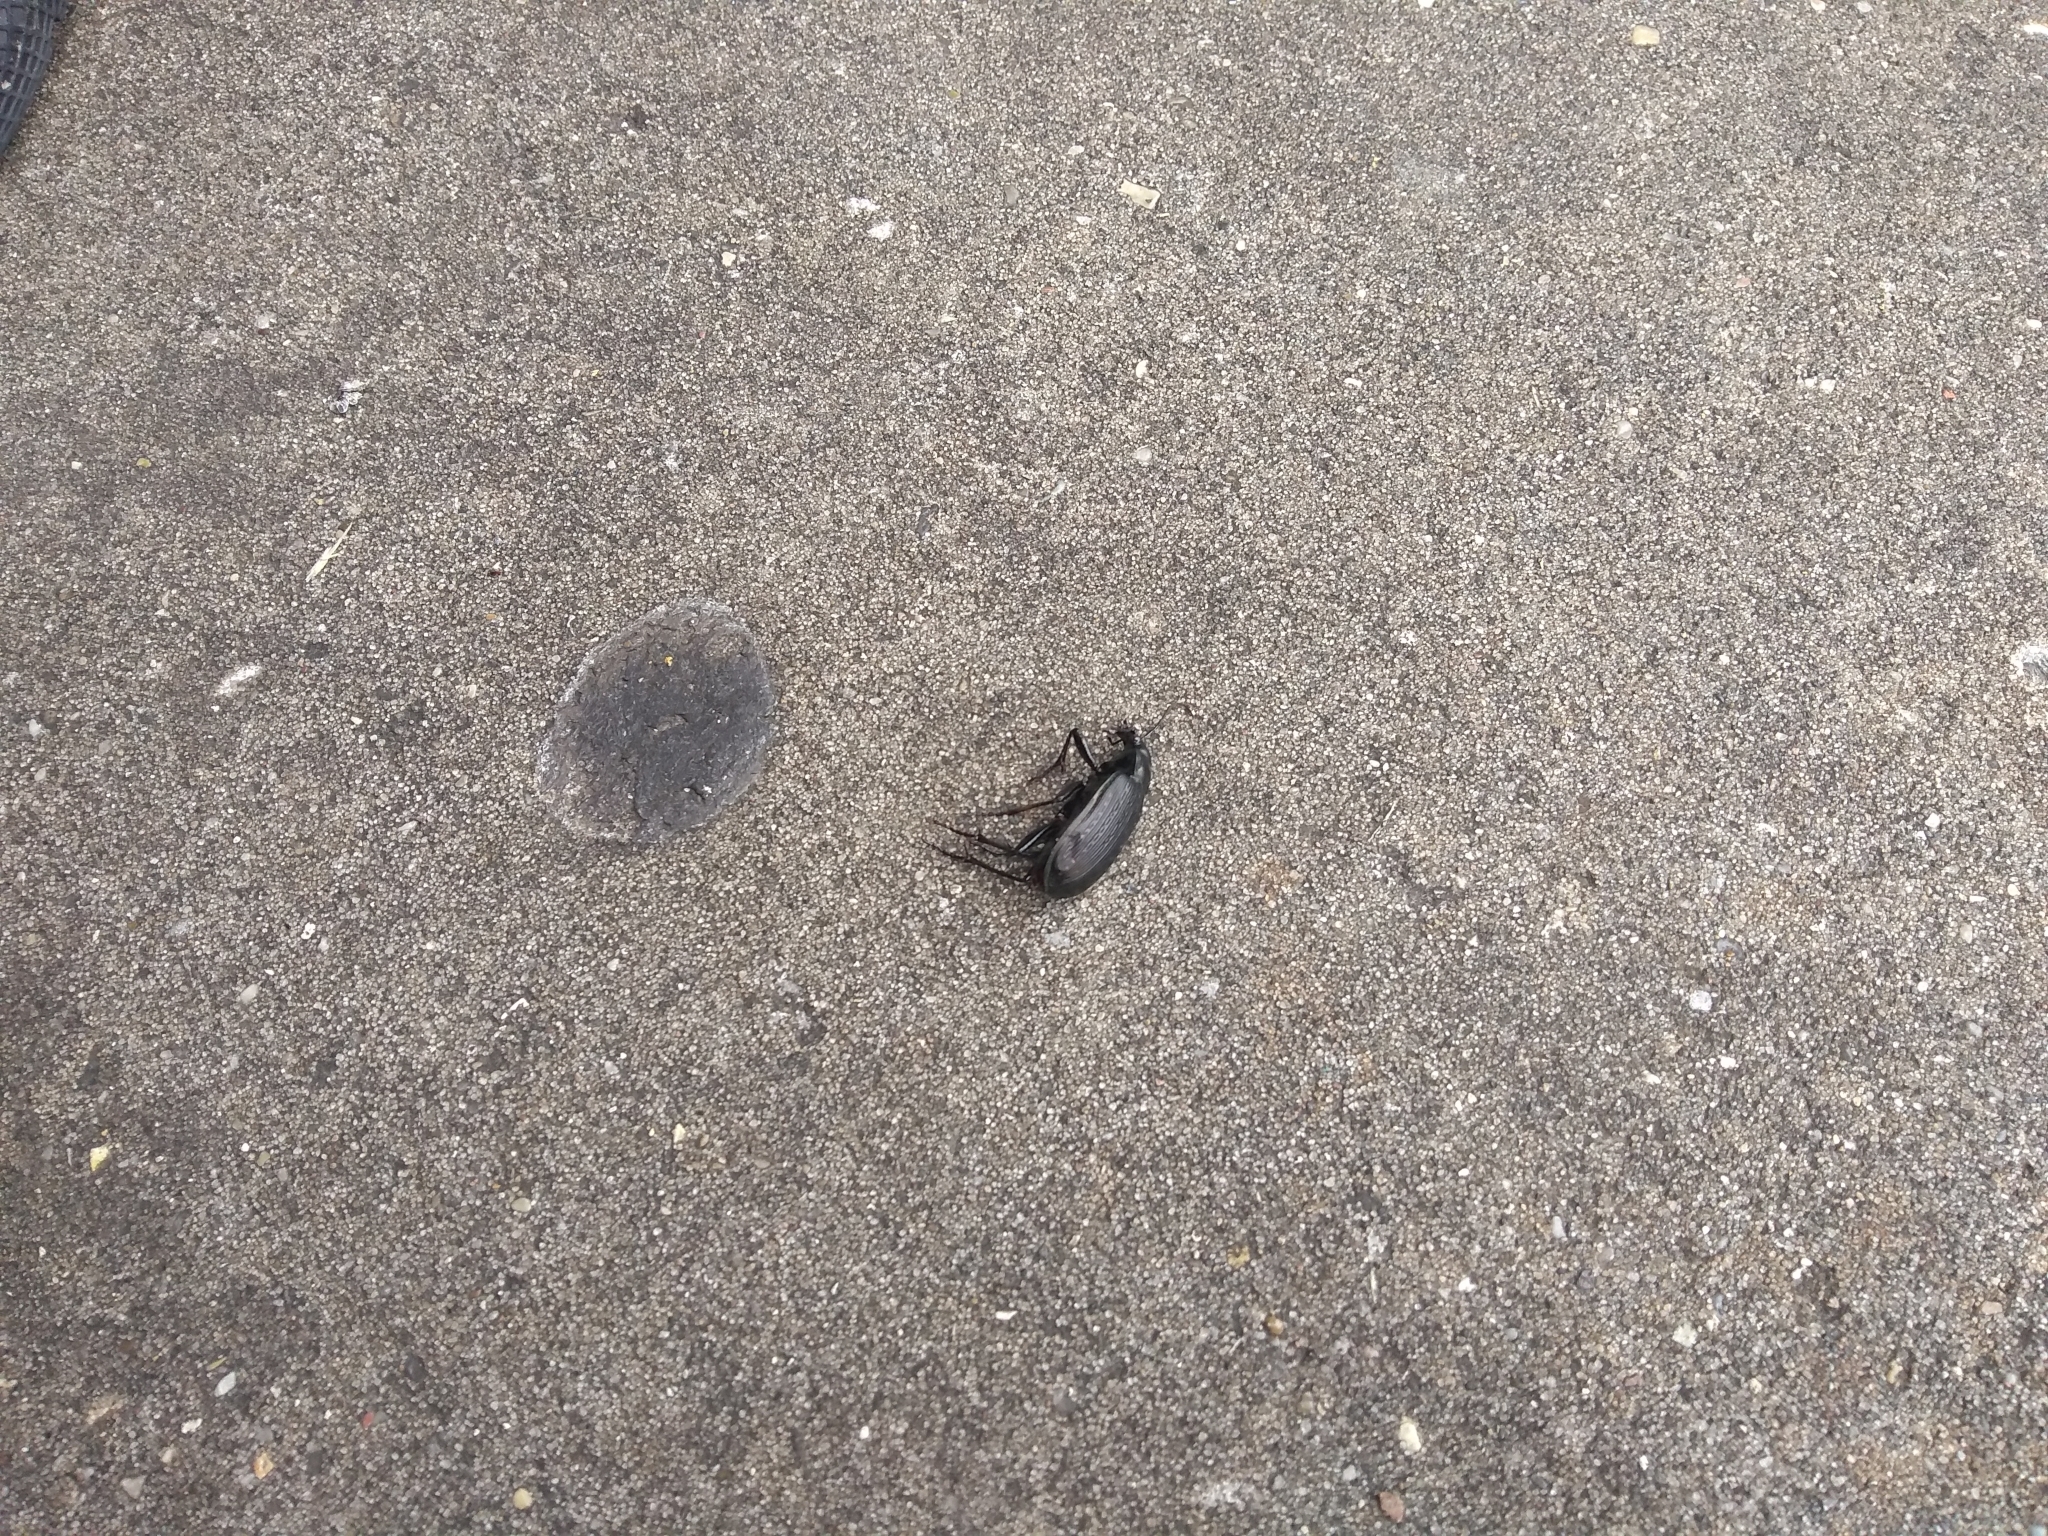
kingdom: Animalia
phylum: Arthropoda
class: Insecta
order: Coleoptera
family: Carabidae
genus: Calosoma
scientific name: Calosoma sayi
